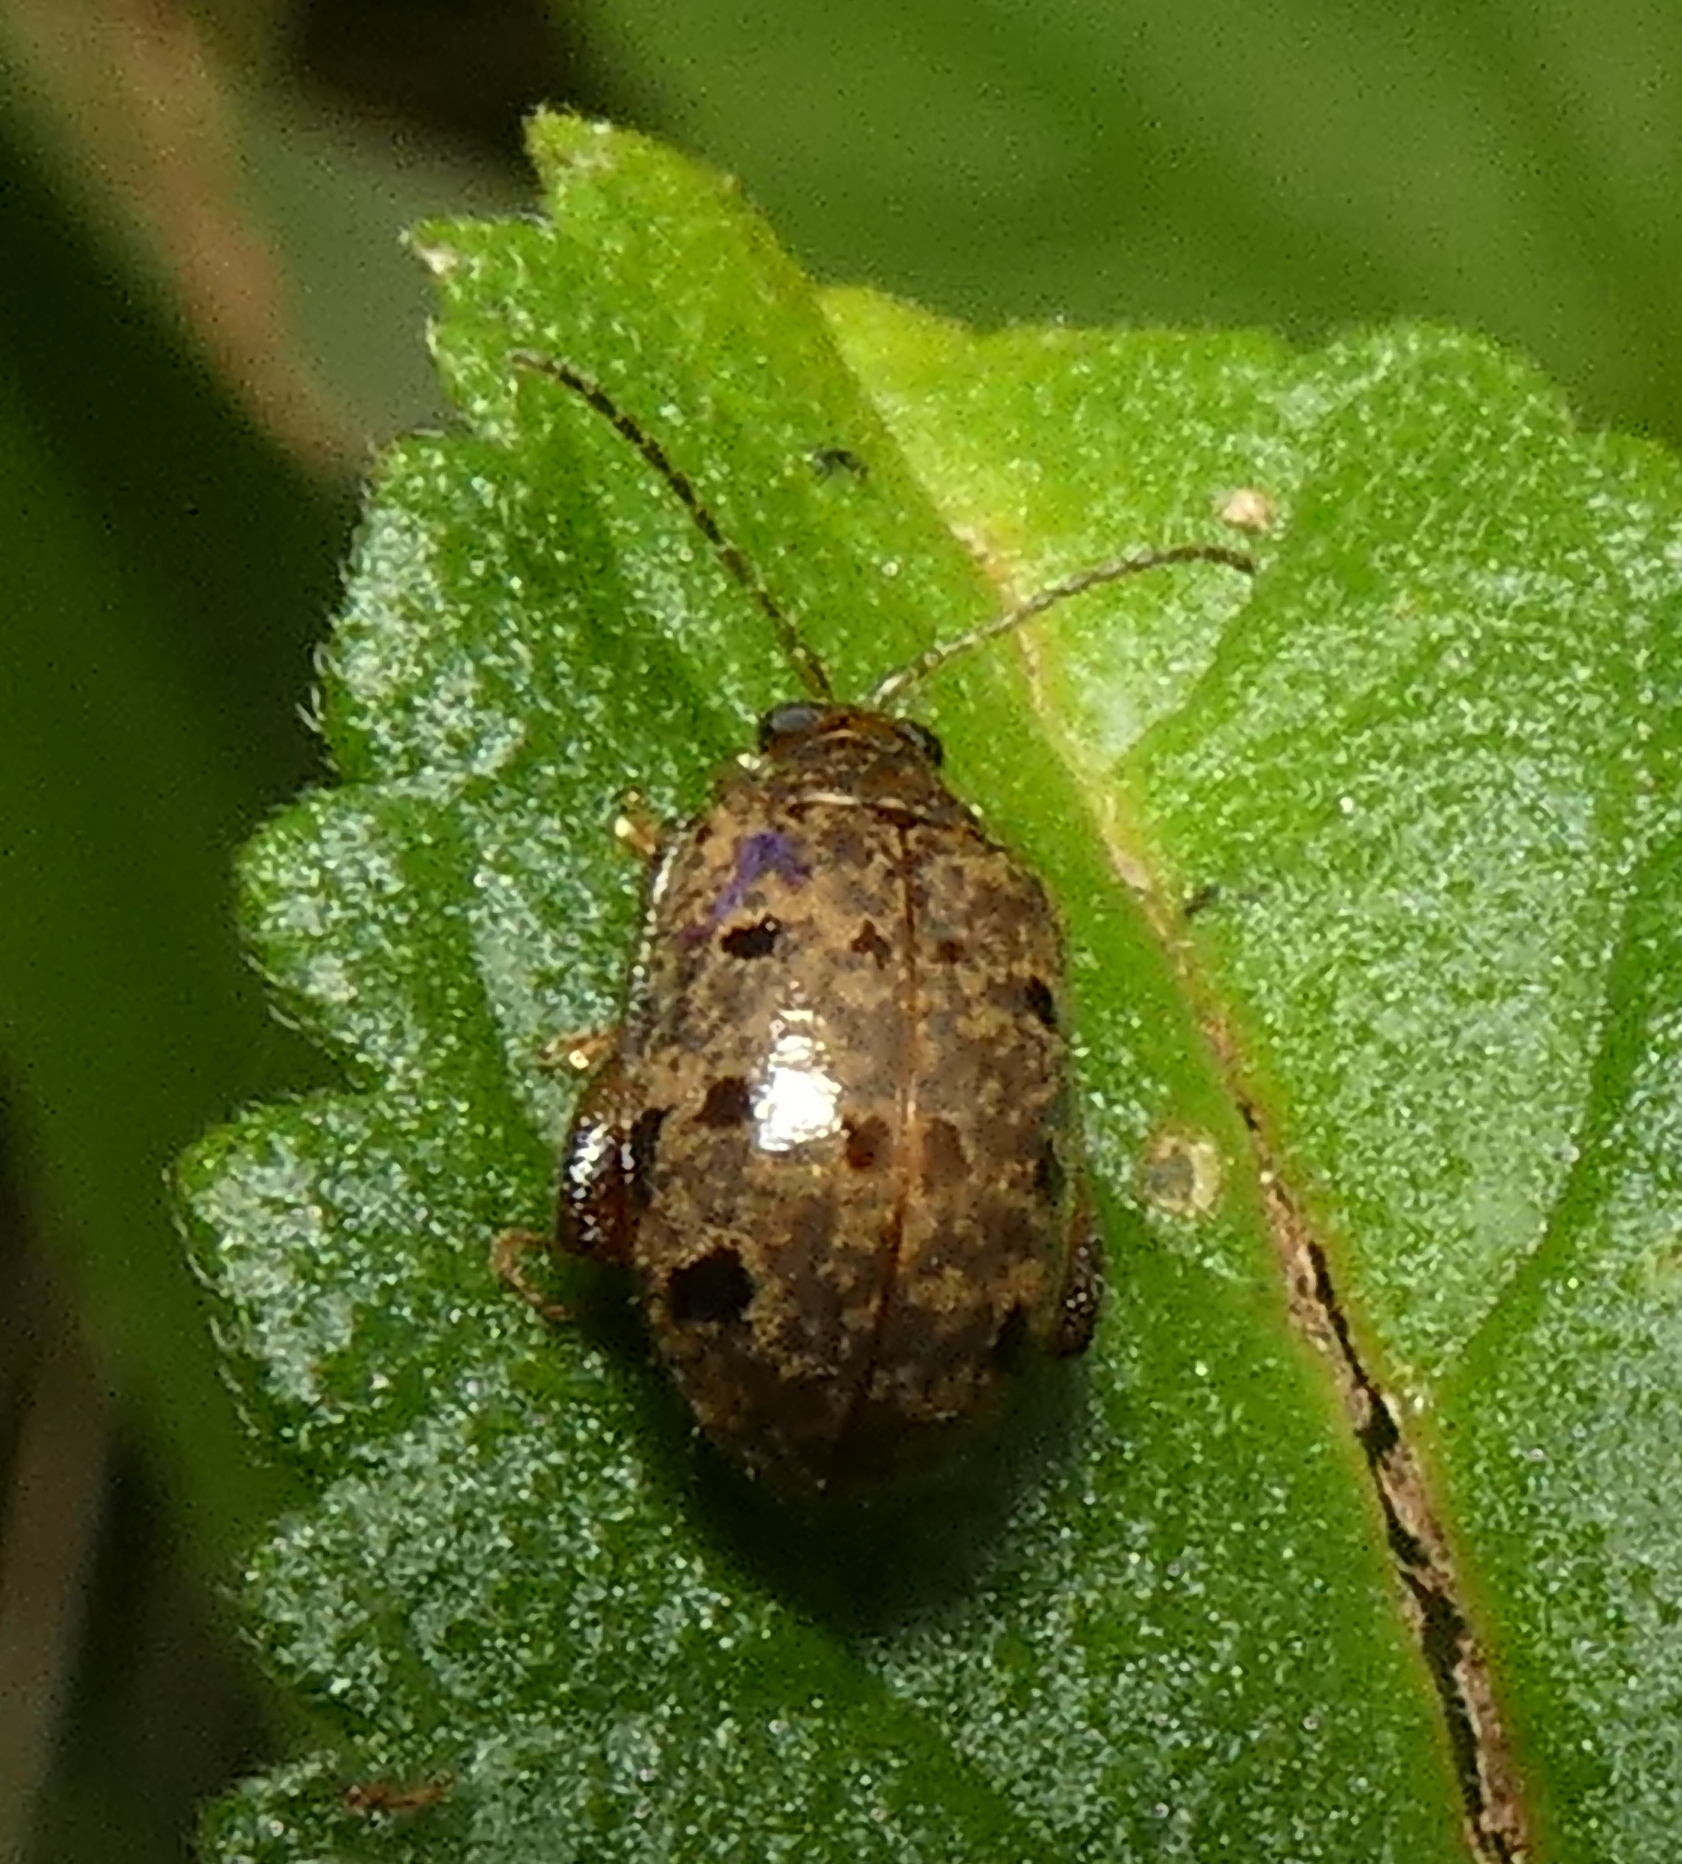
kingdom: Animalia
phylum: Arthropoda
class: Insecta
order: Coleoptera
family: Chrysomelidae
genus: Alagoasa
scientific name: Alagoasa
